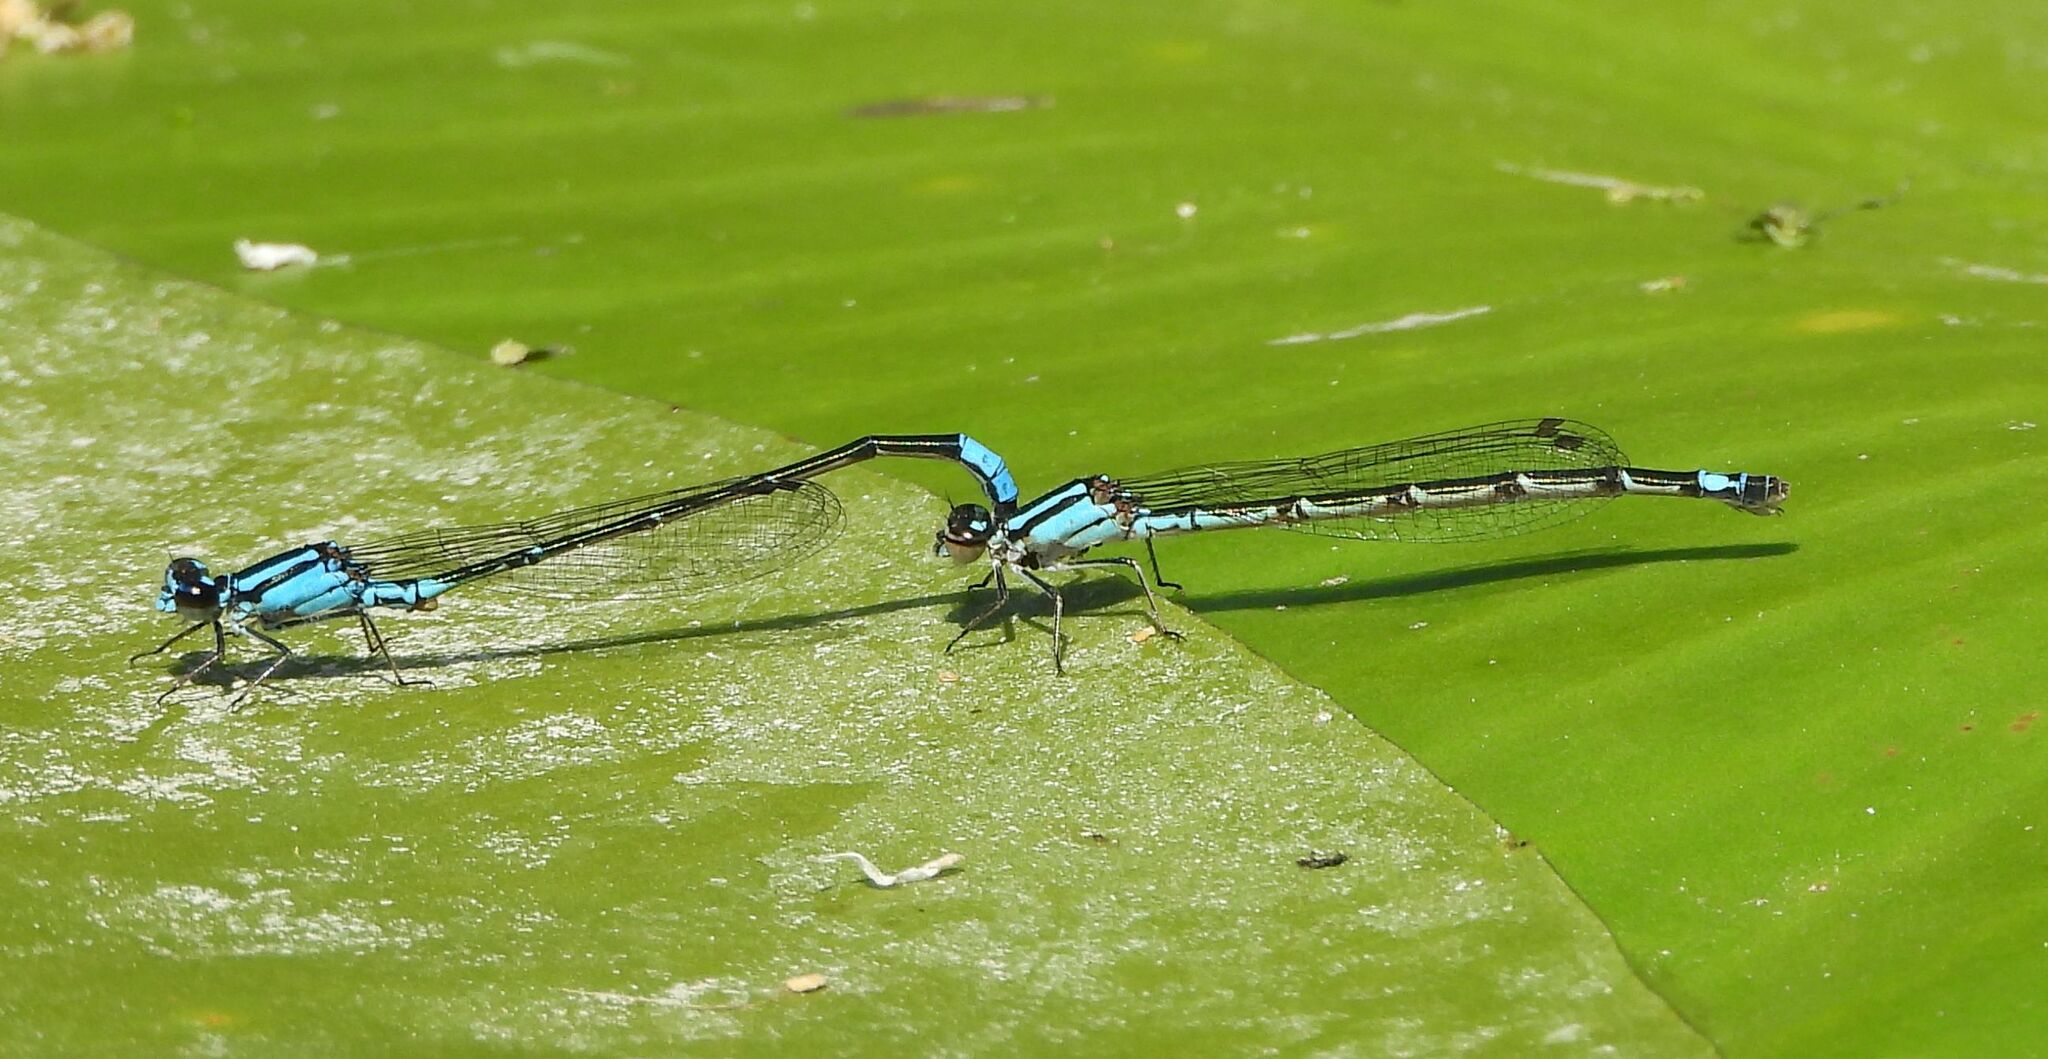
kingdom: Animalia
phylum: Arthropoda
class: Insecta
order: Odonata
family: Coenagrionidae
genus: Enallagma
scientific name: Enallagma geminatum
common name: Skimming bluet
